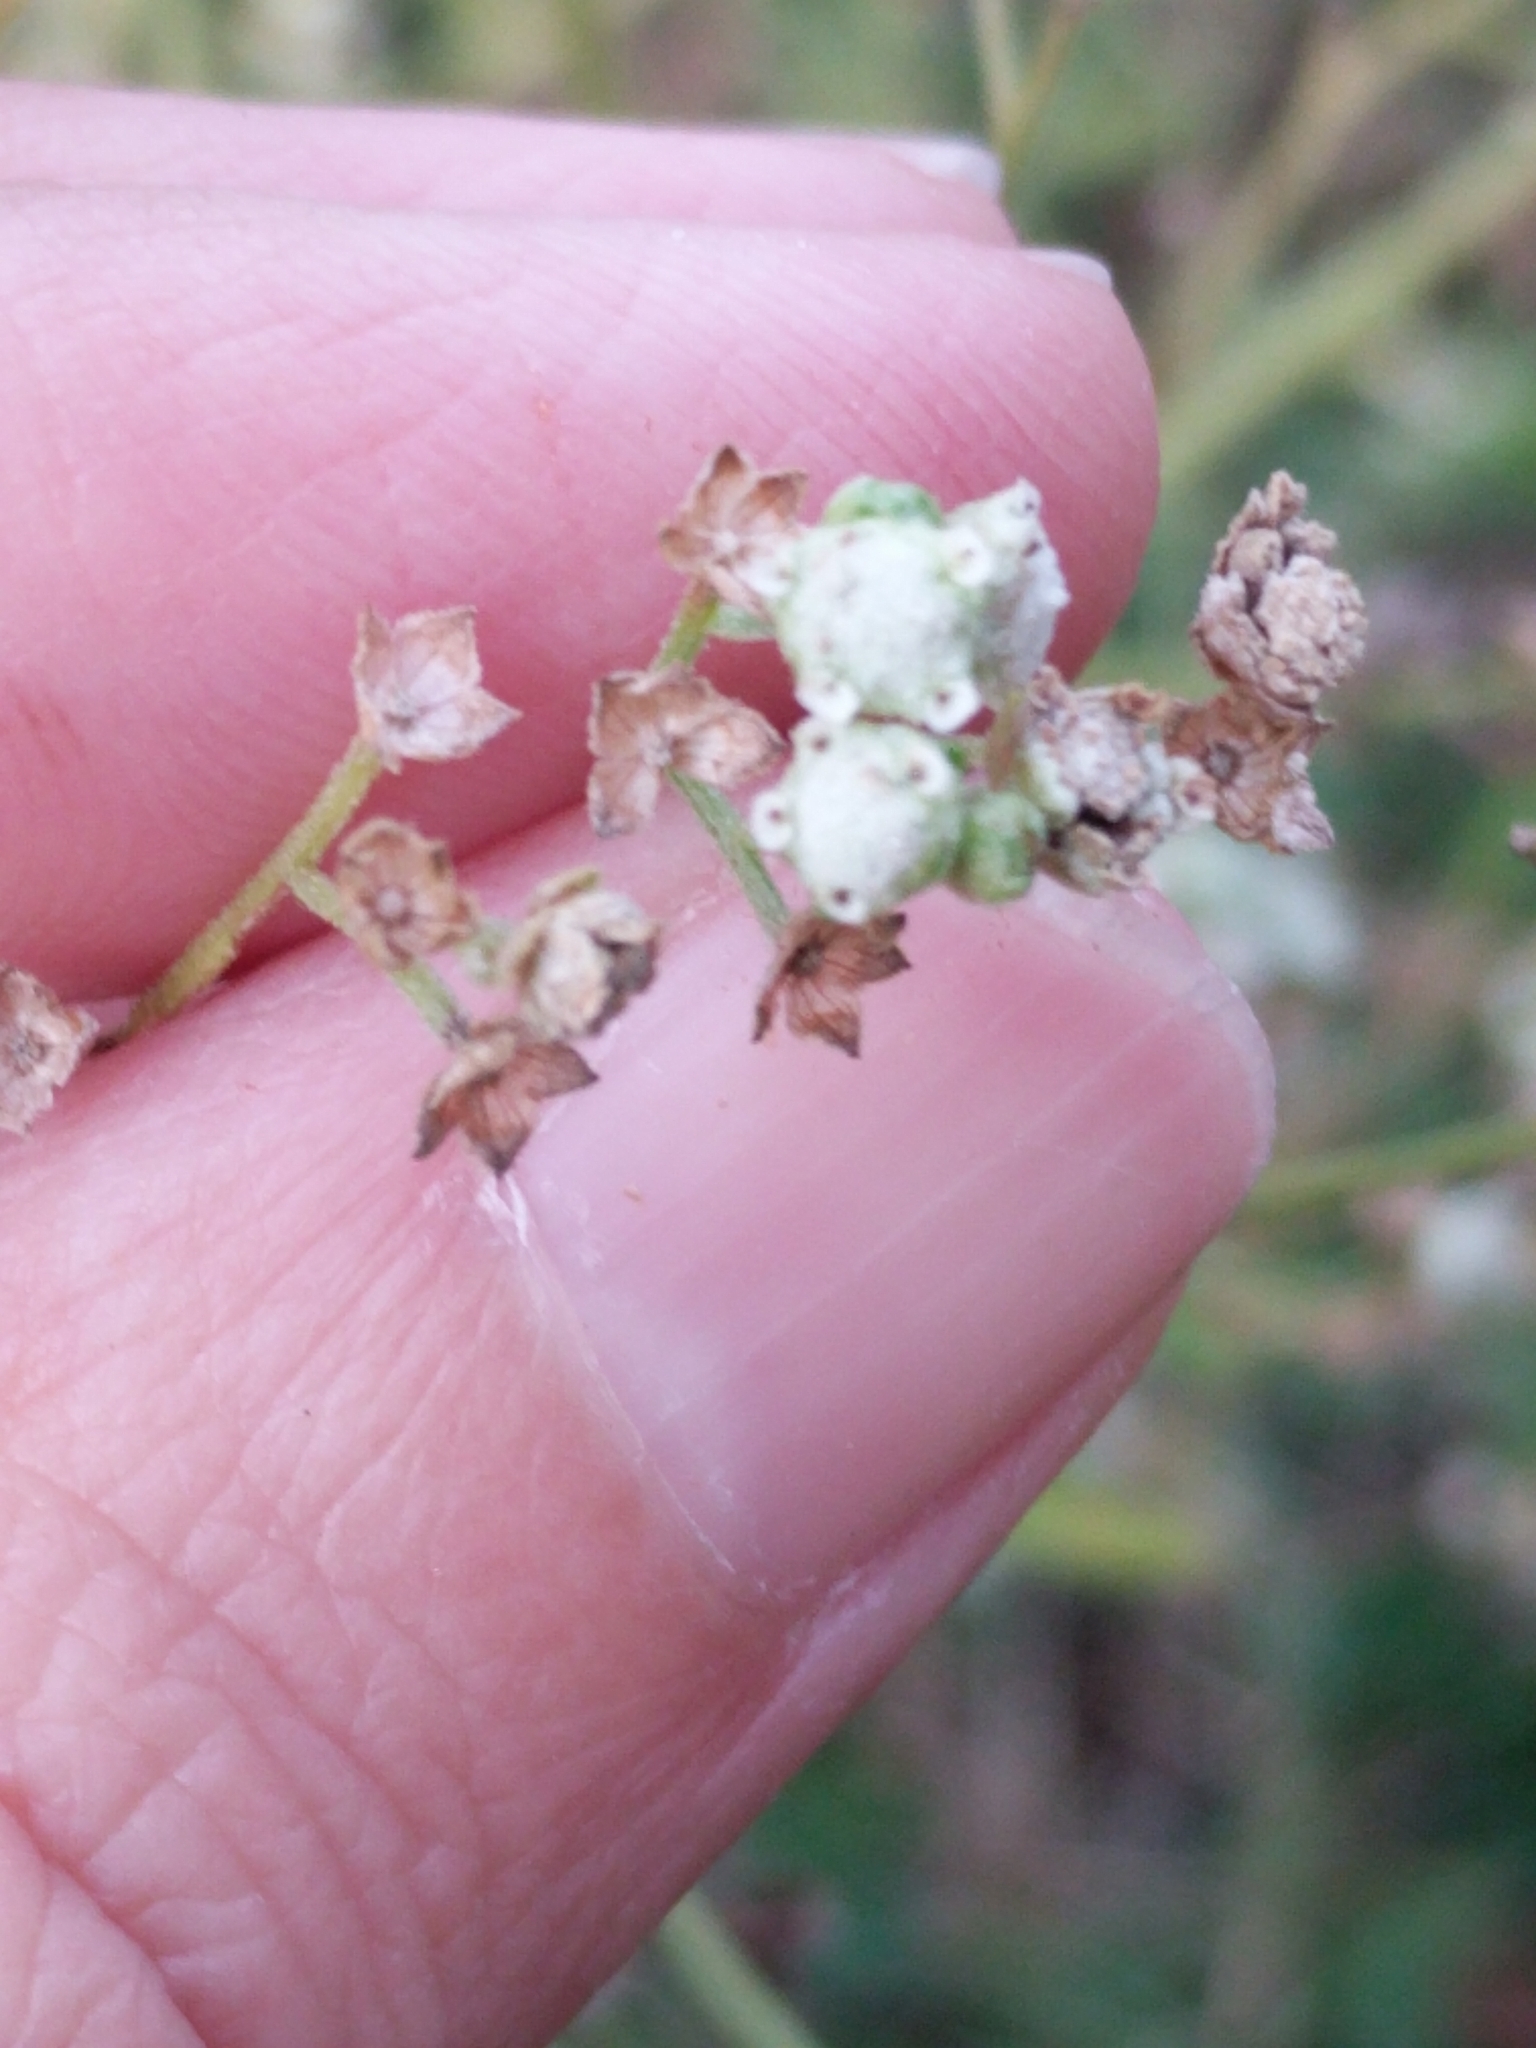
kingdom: Plantae
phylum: Tracheophyta
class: Magnoliopsida
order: Asterales
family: Asteraceae
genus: Parthenium
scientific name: Parthenium hysterophorus
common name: Santa maria feverfew
